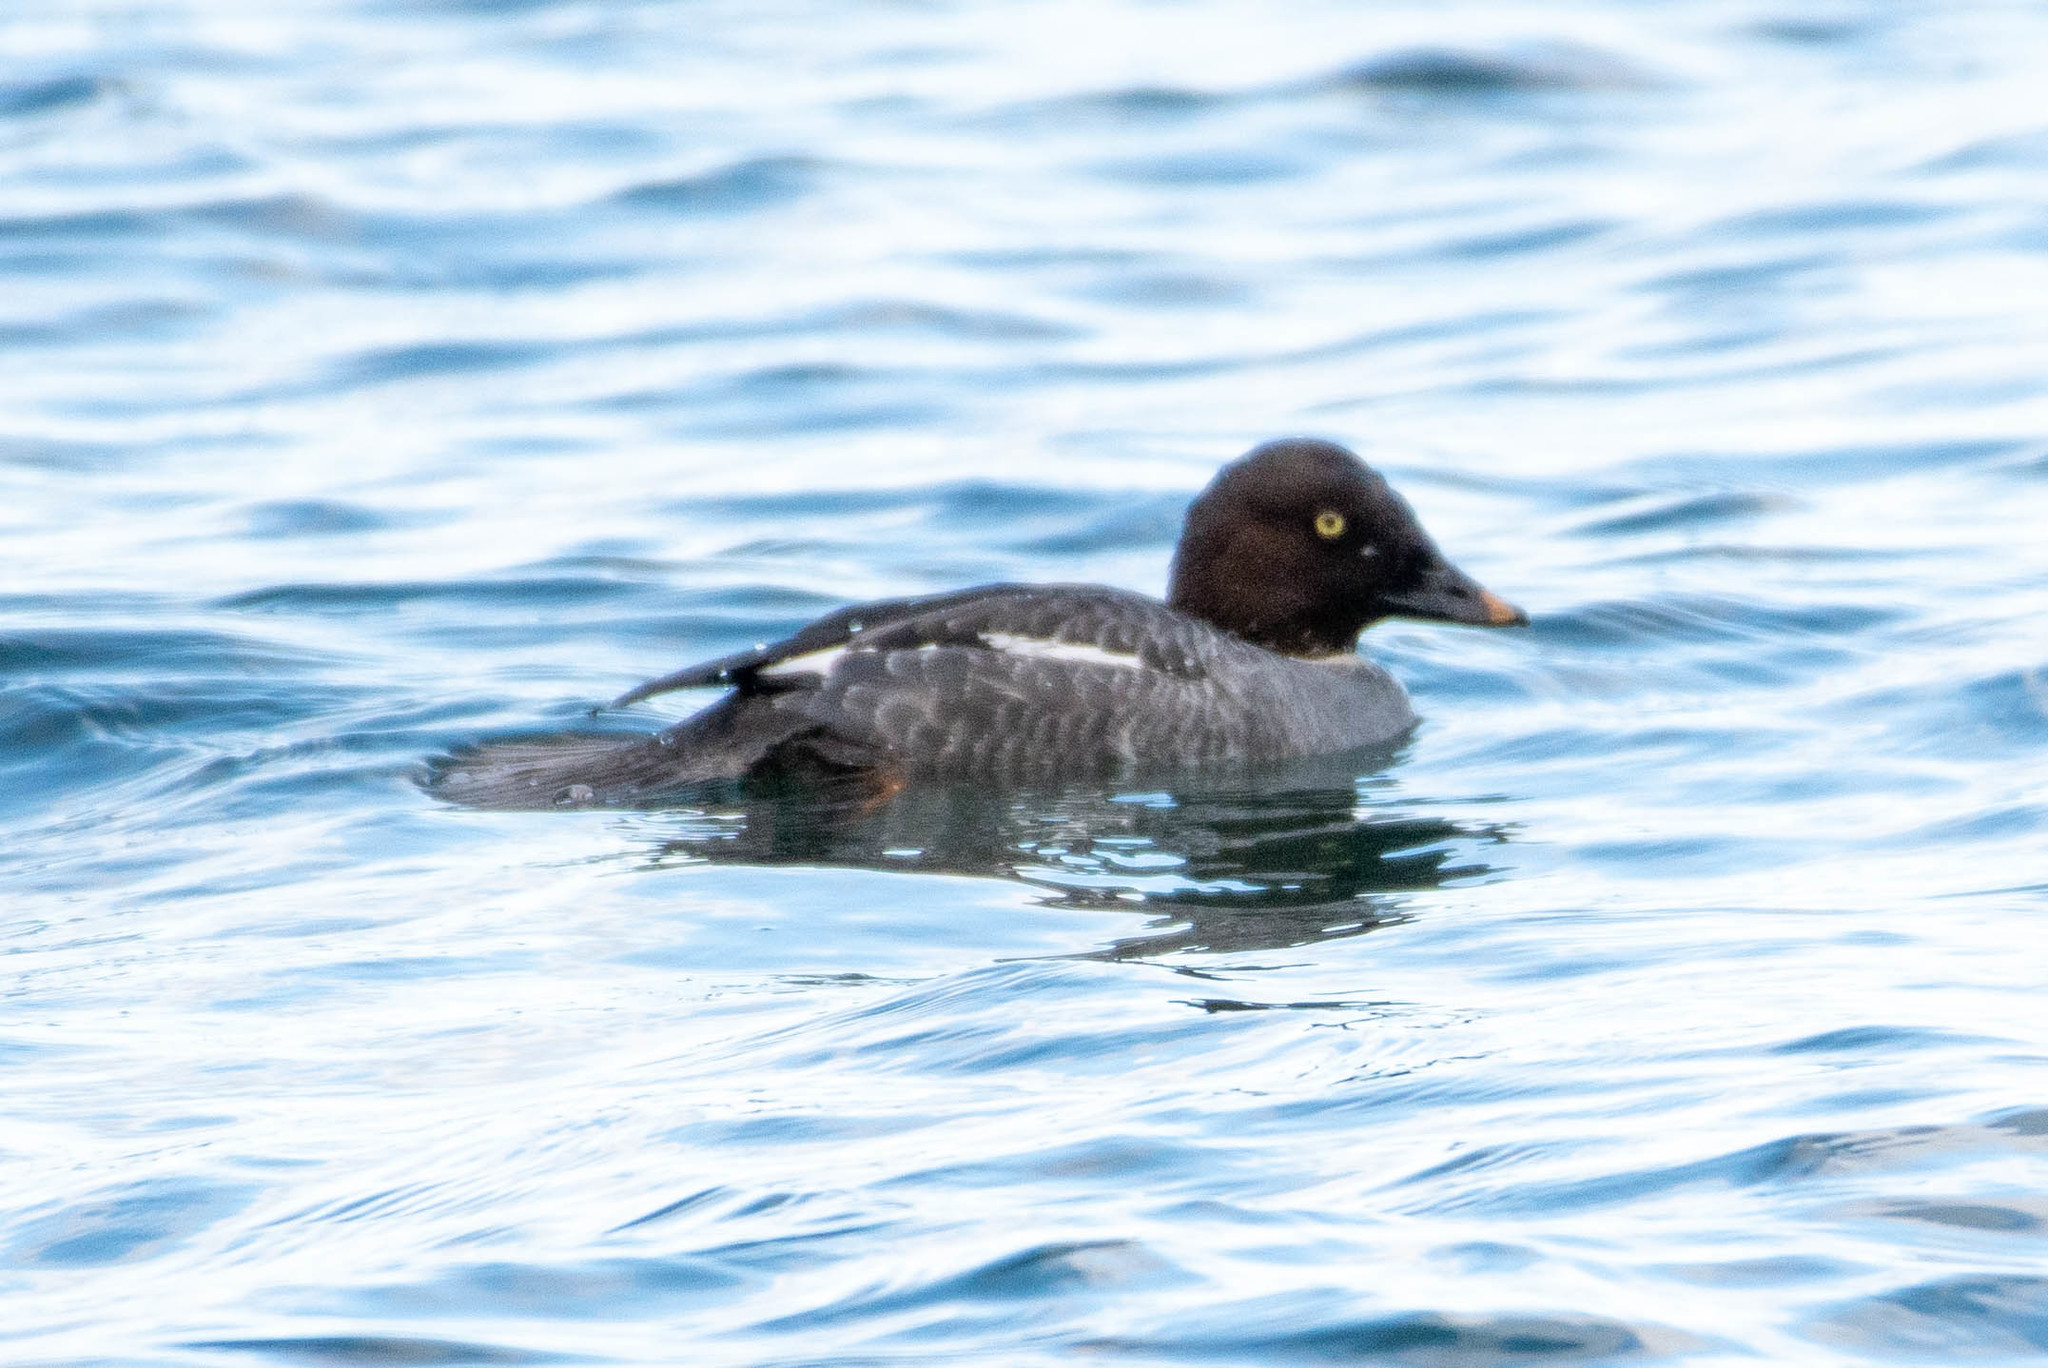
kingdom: Animalia
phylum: Chordata
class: Aves
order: Anseriformes
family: Anatidae
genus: Bucephala
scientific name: Bucephala clangula
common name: Common goldeneye
